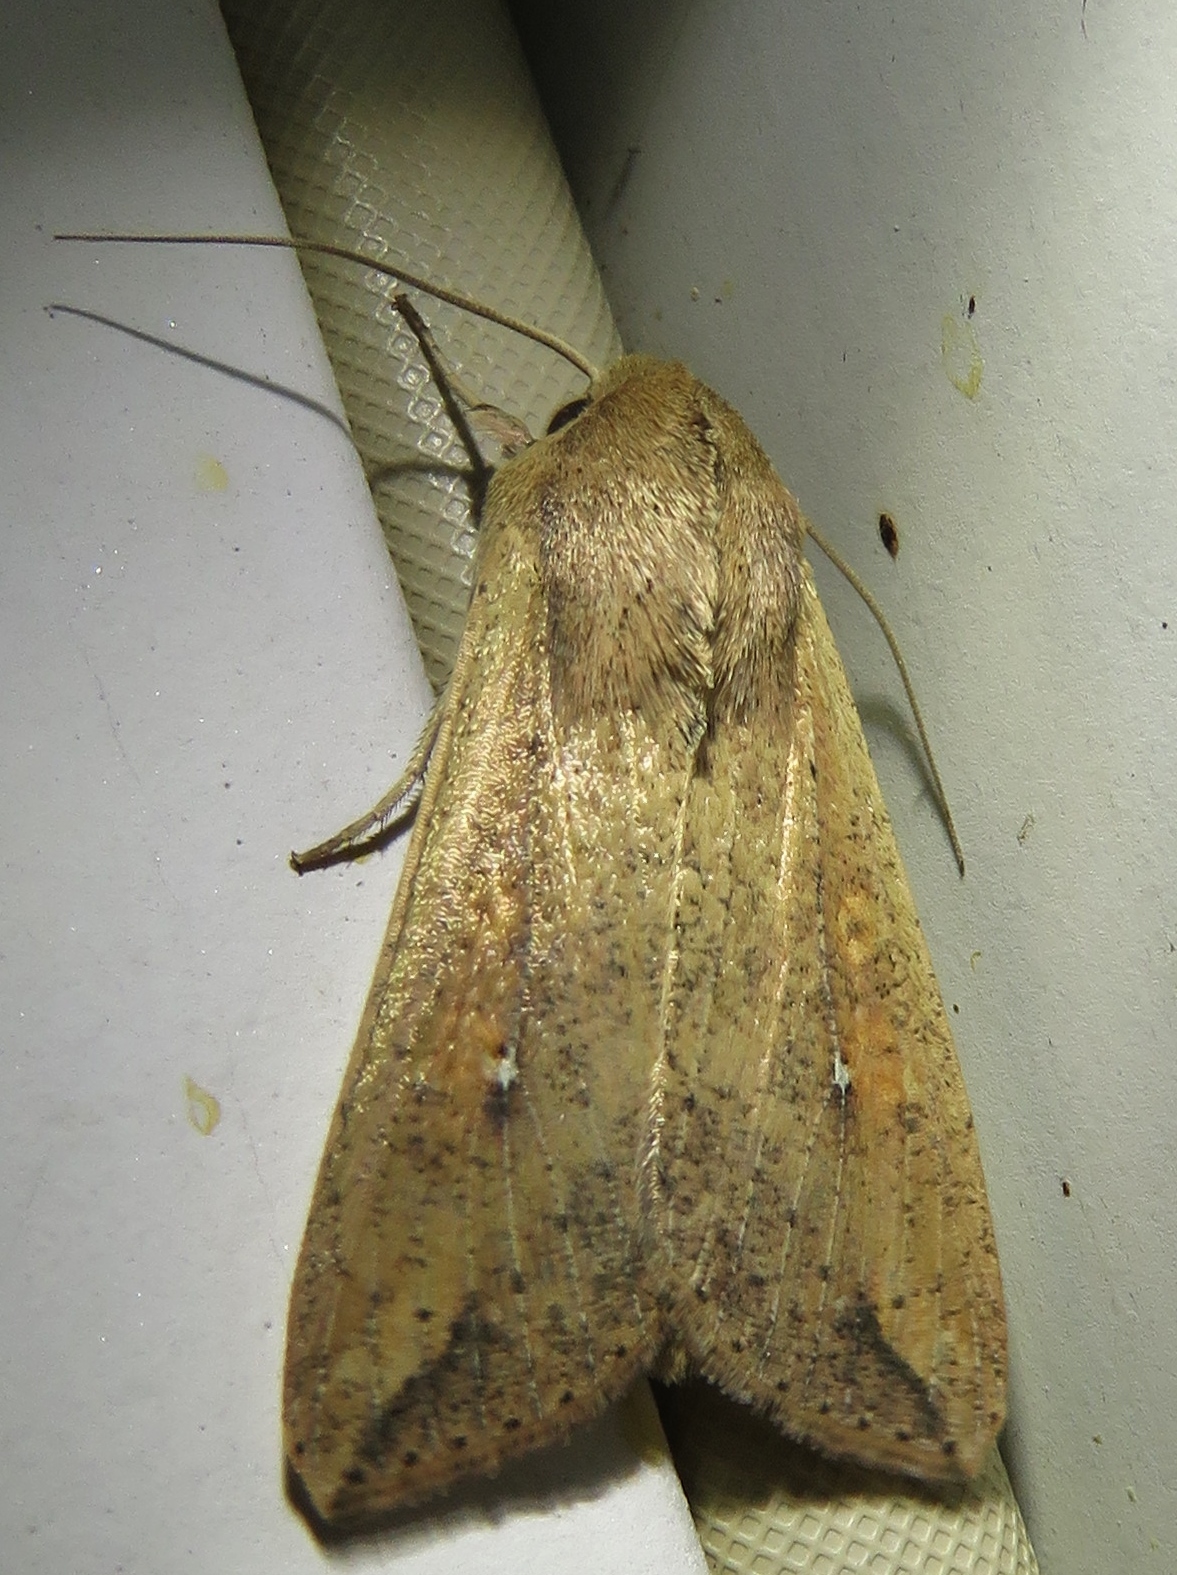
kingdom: Animalia
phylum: Arthropoda
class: Insecta
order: Lepidoptera
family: Noctuidae
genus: Mythimna
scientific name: Mythimna unipuncta
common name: White-speck
